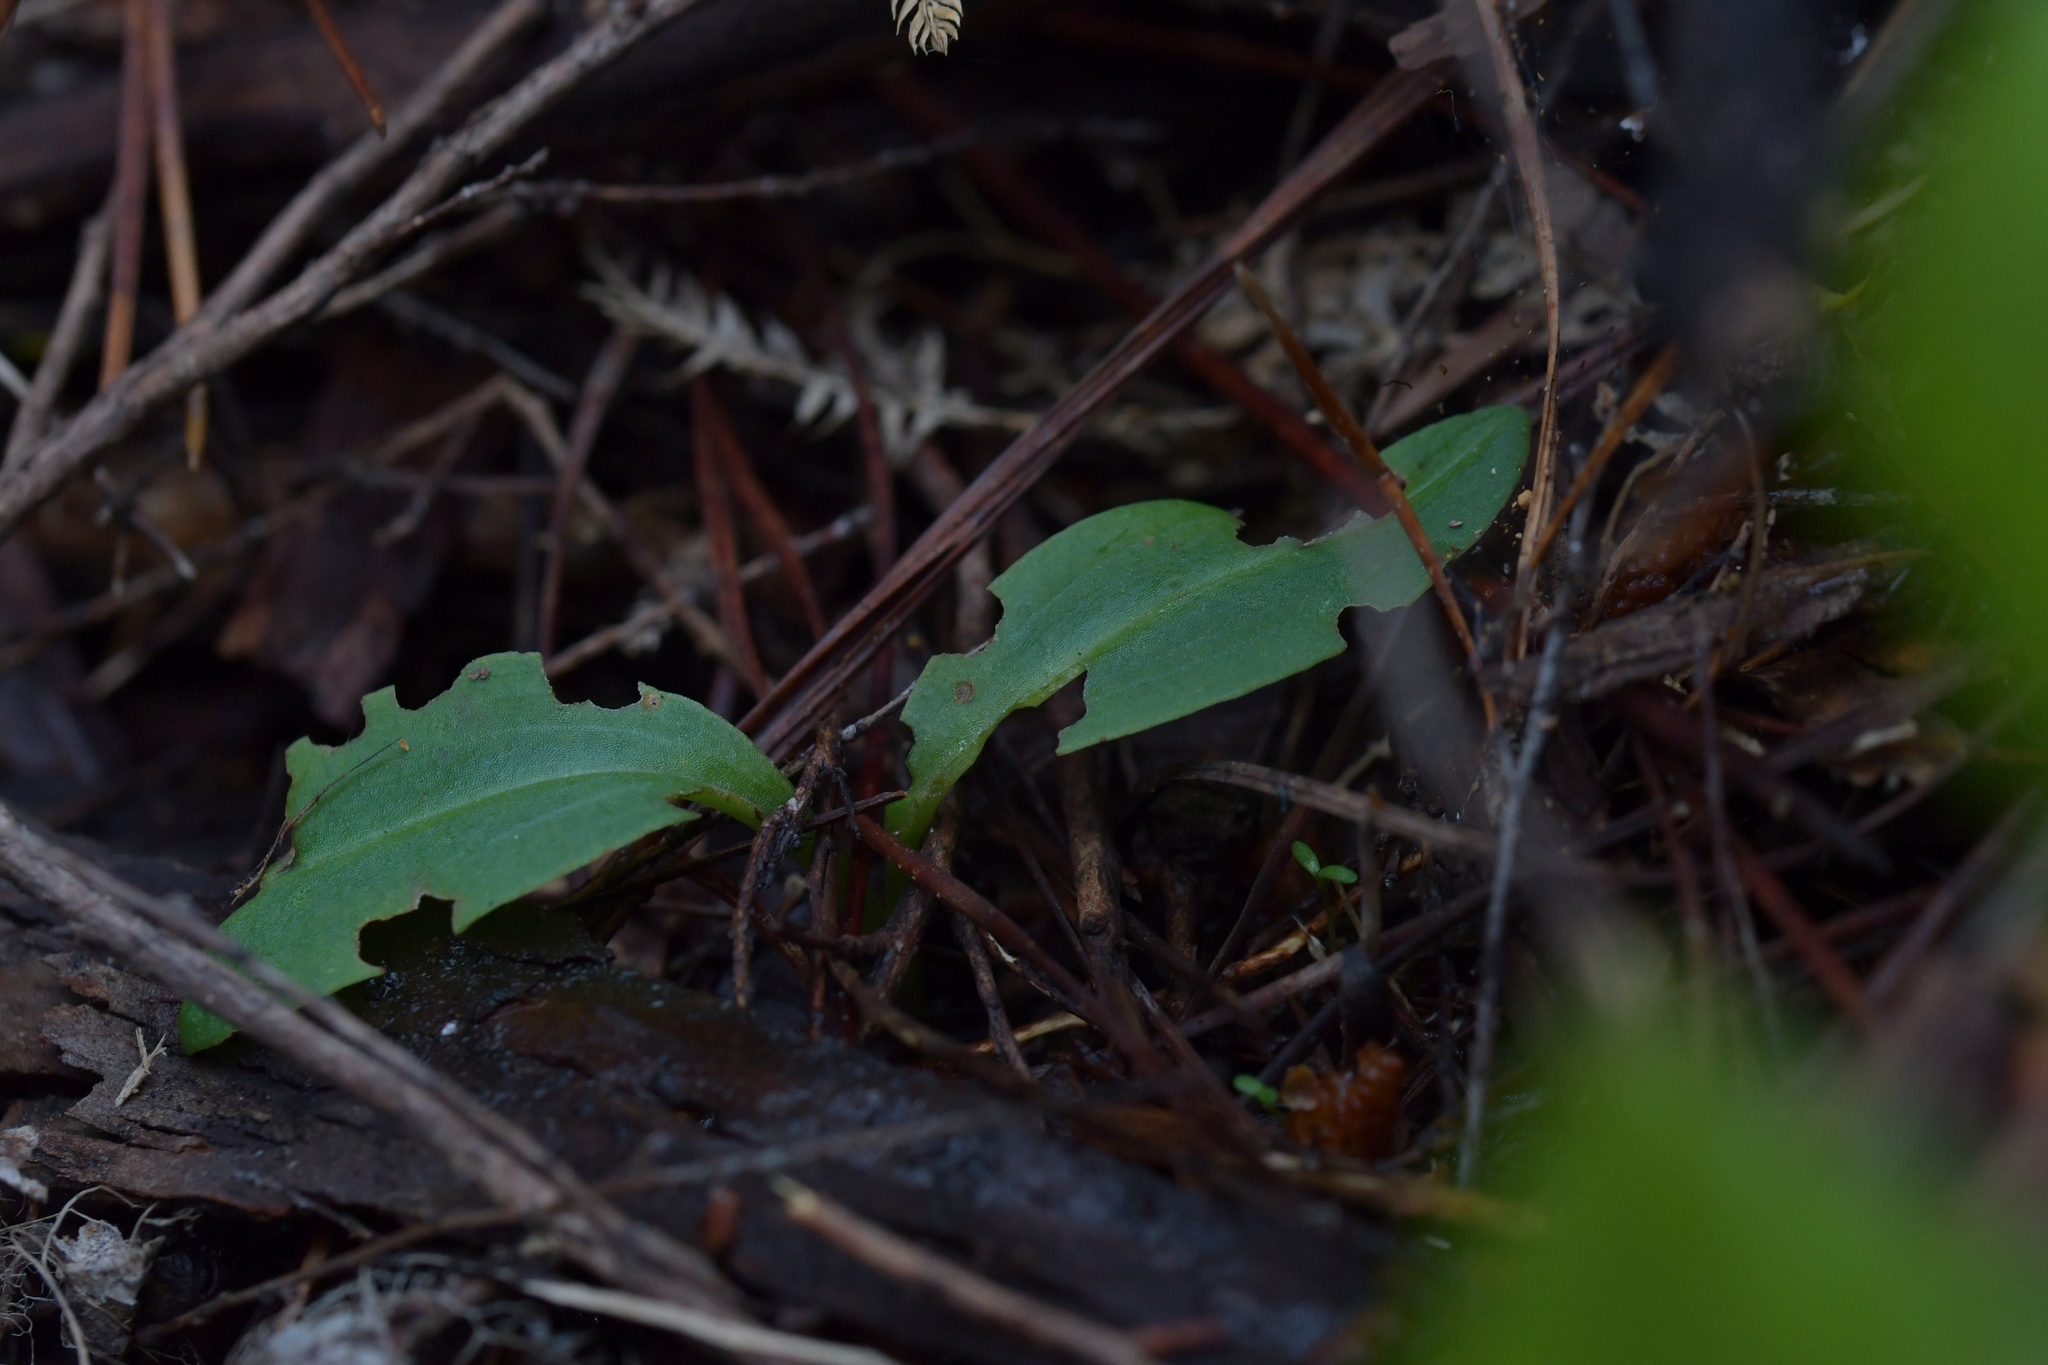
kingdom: Plantae
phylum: Tracheophyta
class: Liliopsida
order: Asparagales
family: Orchidaceae
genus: Chiloglottis
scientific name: Chiloglottis cornuta
